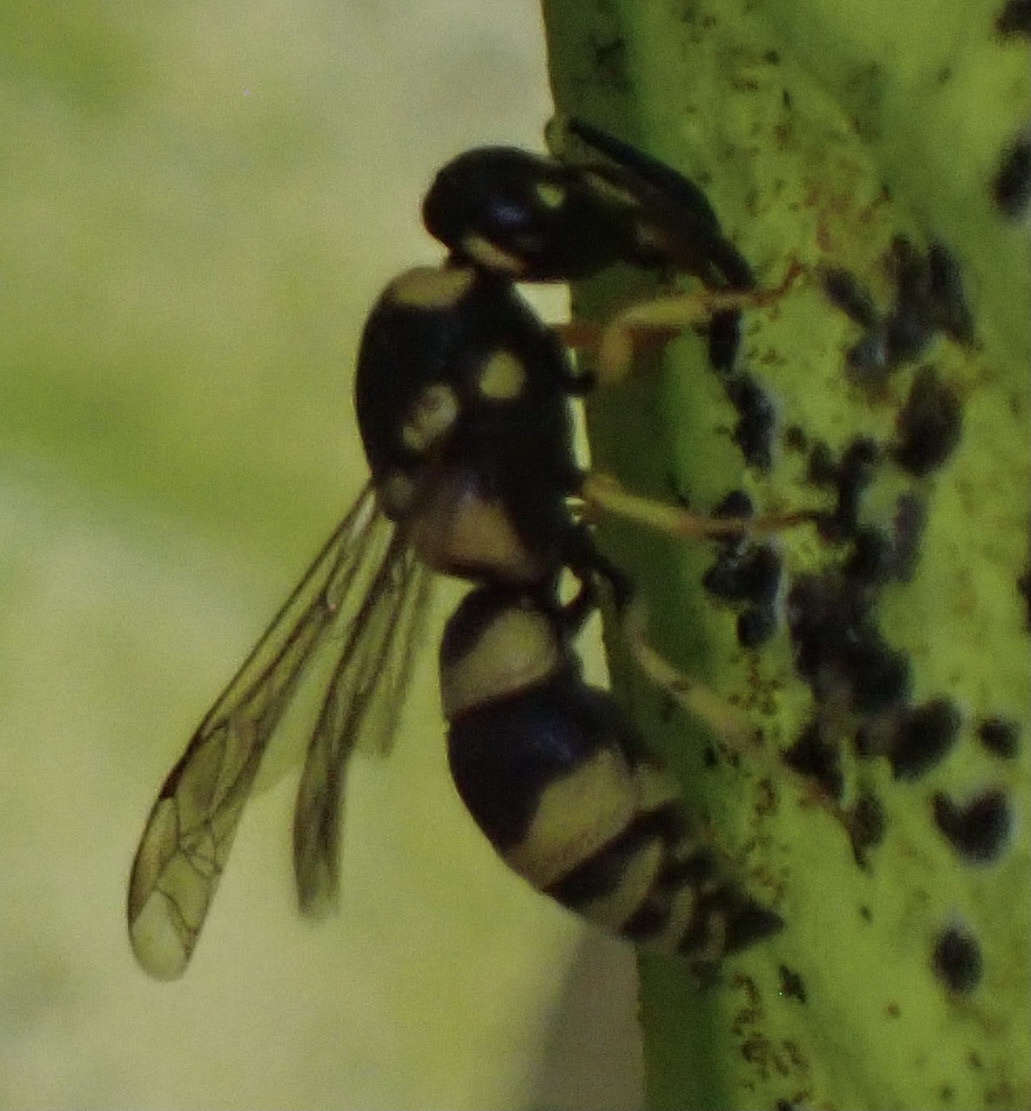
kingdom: Animalia
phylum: Arthropoda
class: Insecta
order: Hymenoptera
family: Eumenidae
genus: Tachyancistrocerus
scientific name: Tachyancistrocerus rhodensis
